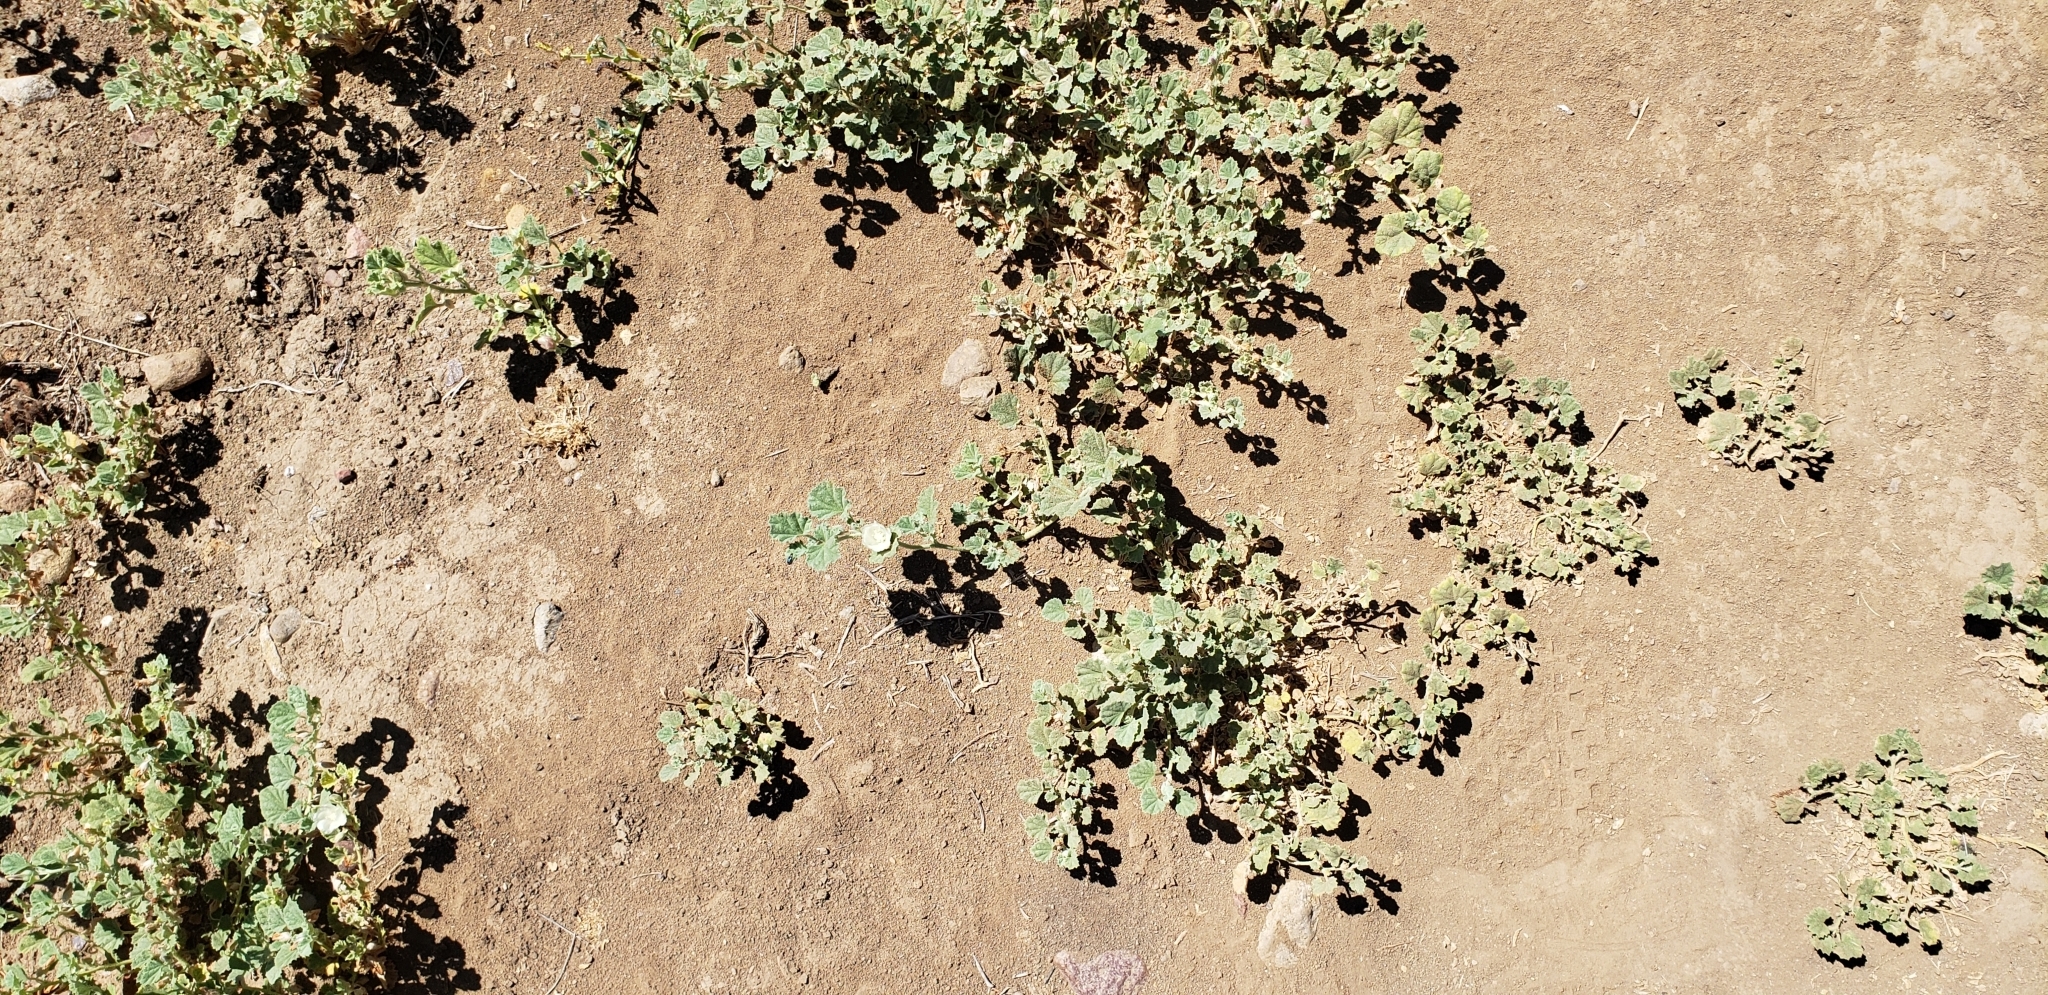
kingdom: Plantae
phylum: Tracheophyta
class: Magnoliopsida
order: Malvales
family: Malvaceae
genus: Malvella
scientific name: Malvella leprosa
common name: Alkali-mallow
